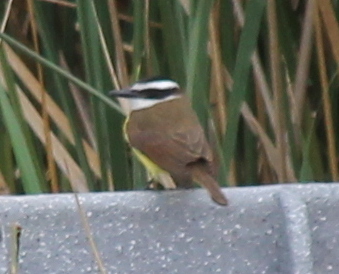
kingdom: Animalia
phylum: Chordata
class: Aves
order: Passeriformes
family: Tyrannidae
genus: Pitangus
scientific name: Pitangus sulphuratus
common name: Great kiskadee
